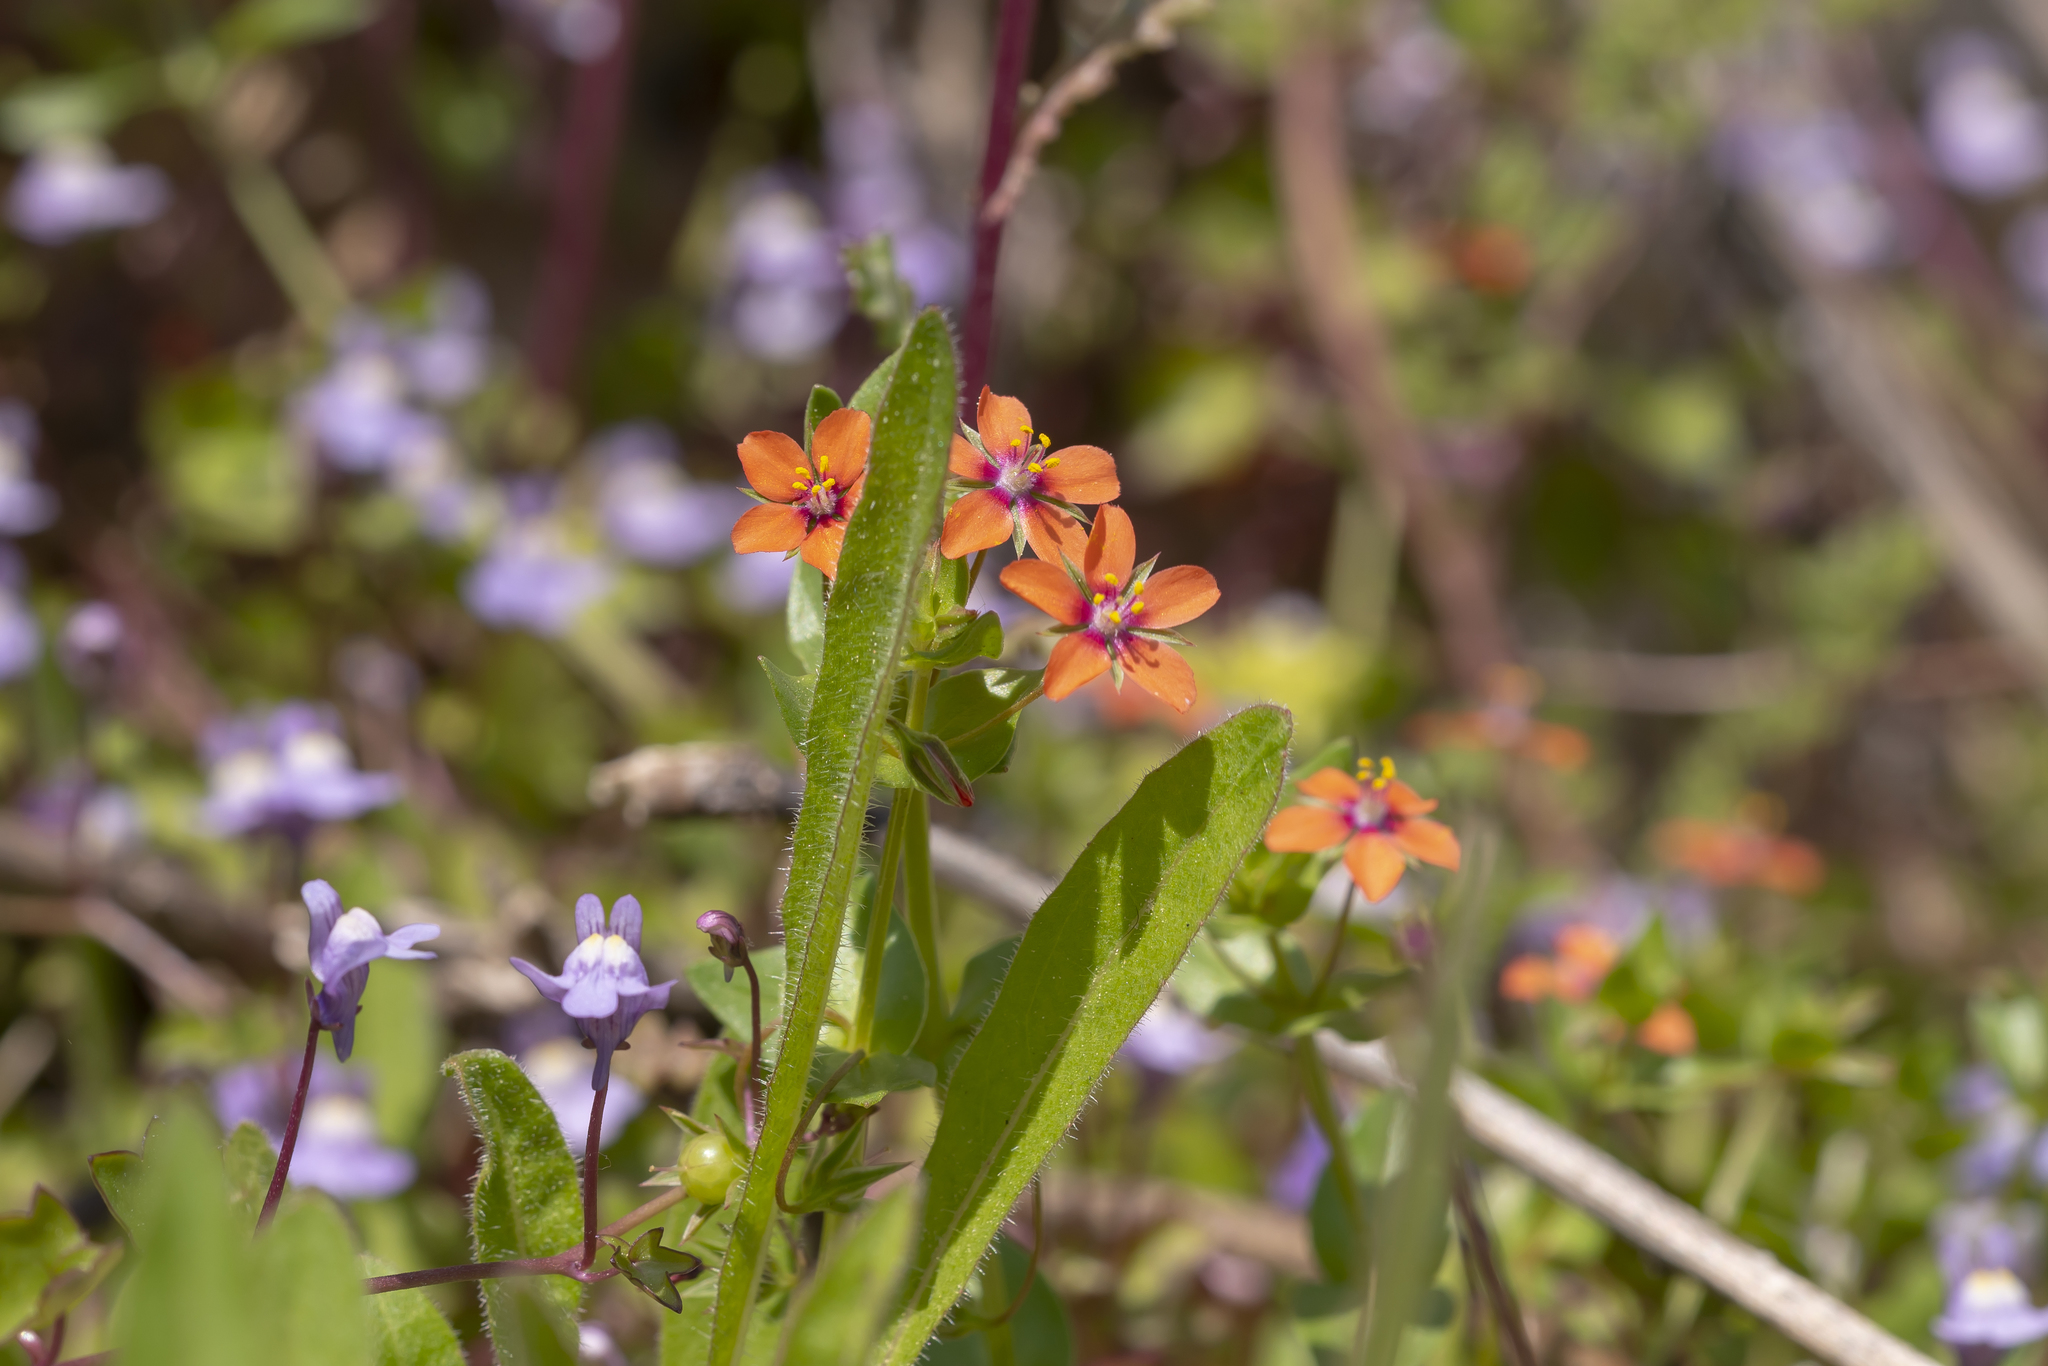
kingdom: Plantae
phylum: Tracheophyta
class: Magnoliopsida
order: Ericales
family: Primulaceae
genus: Lysimachia
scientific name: Lysimachia arvensis
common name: Scarlet pimpernel
